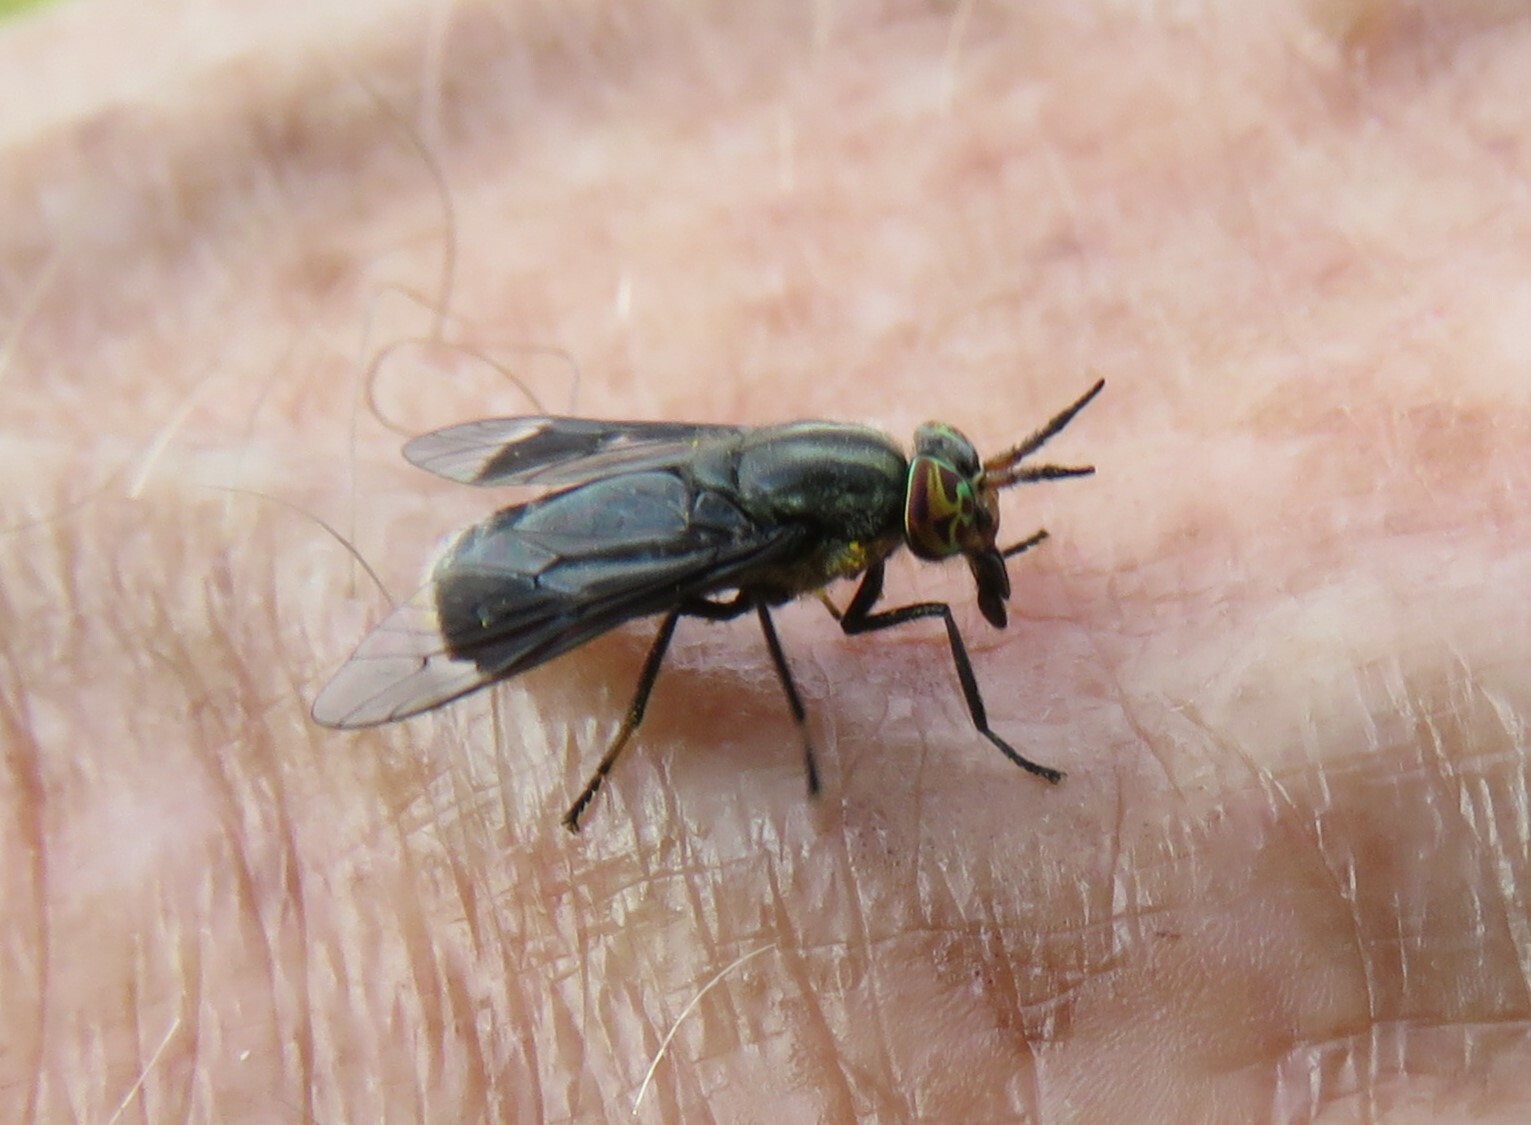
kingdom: Animalia
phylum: Arthropoda
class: Insecta
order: Diptera
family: Tabanidae
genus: Chrysops
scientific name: Chrysops niger
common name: Black deer fly
